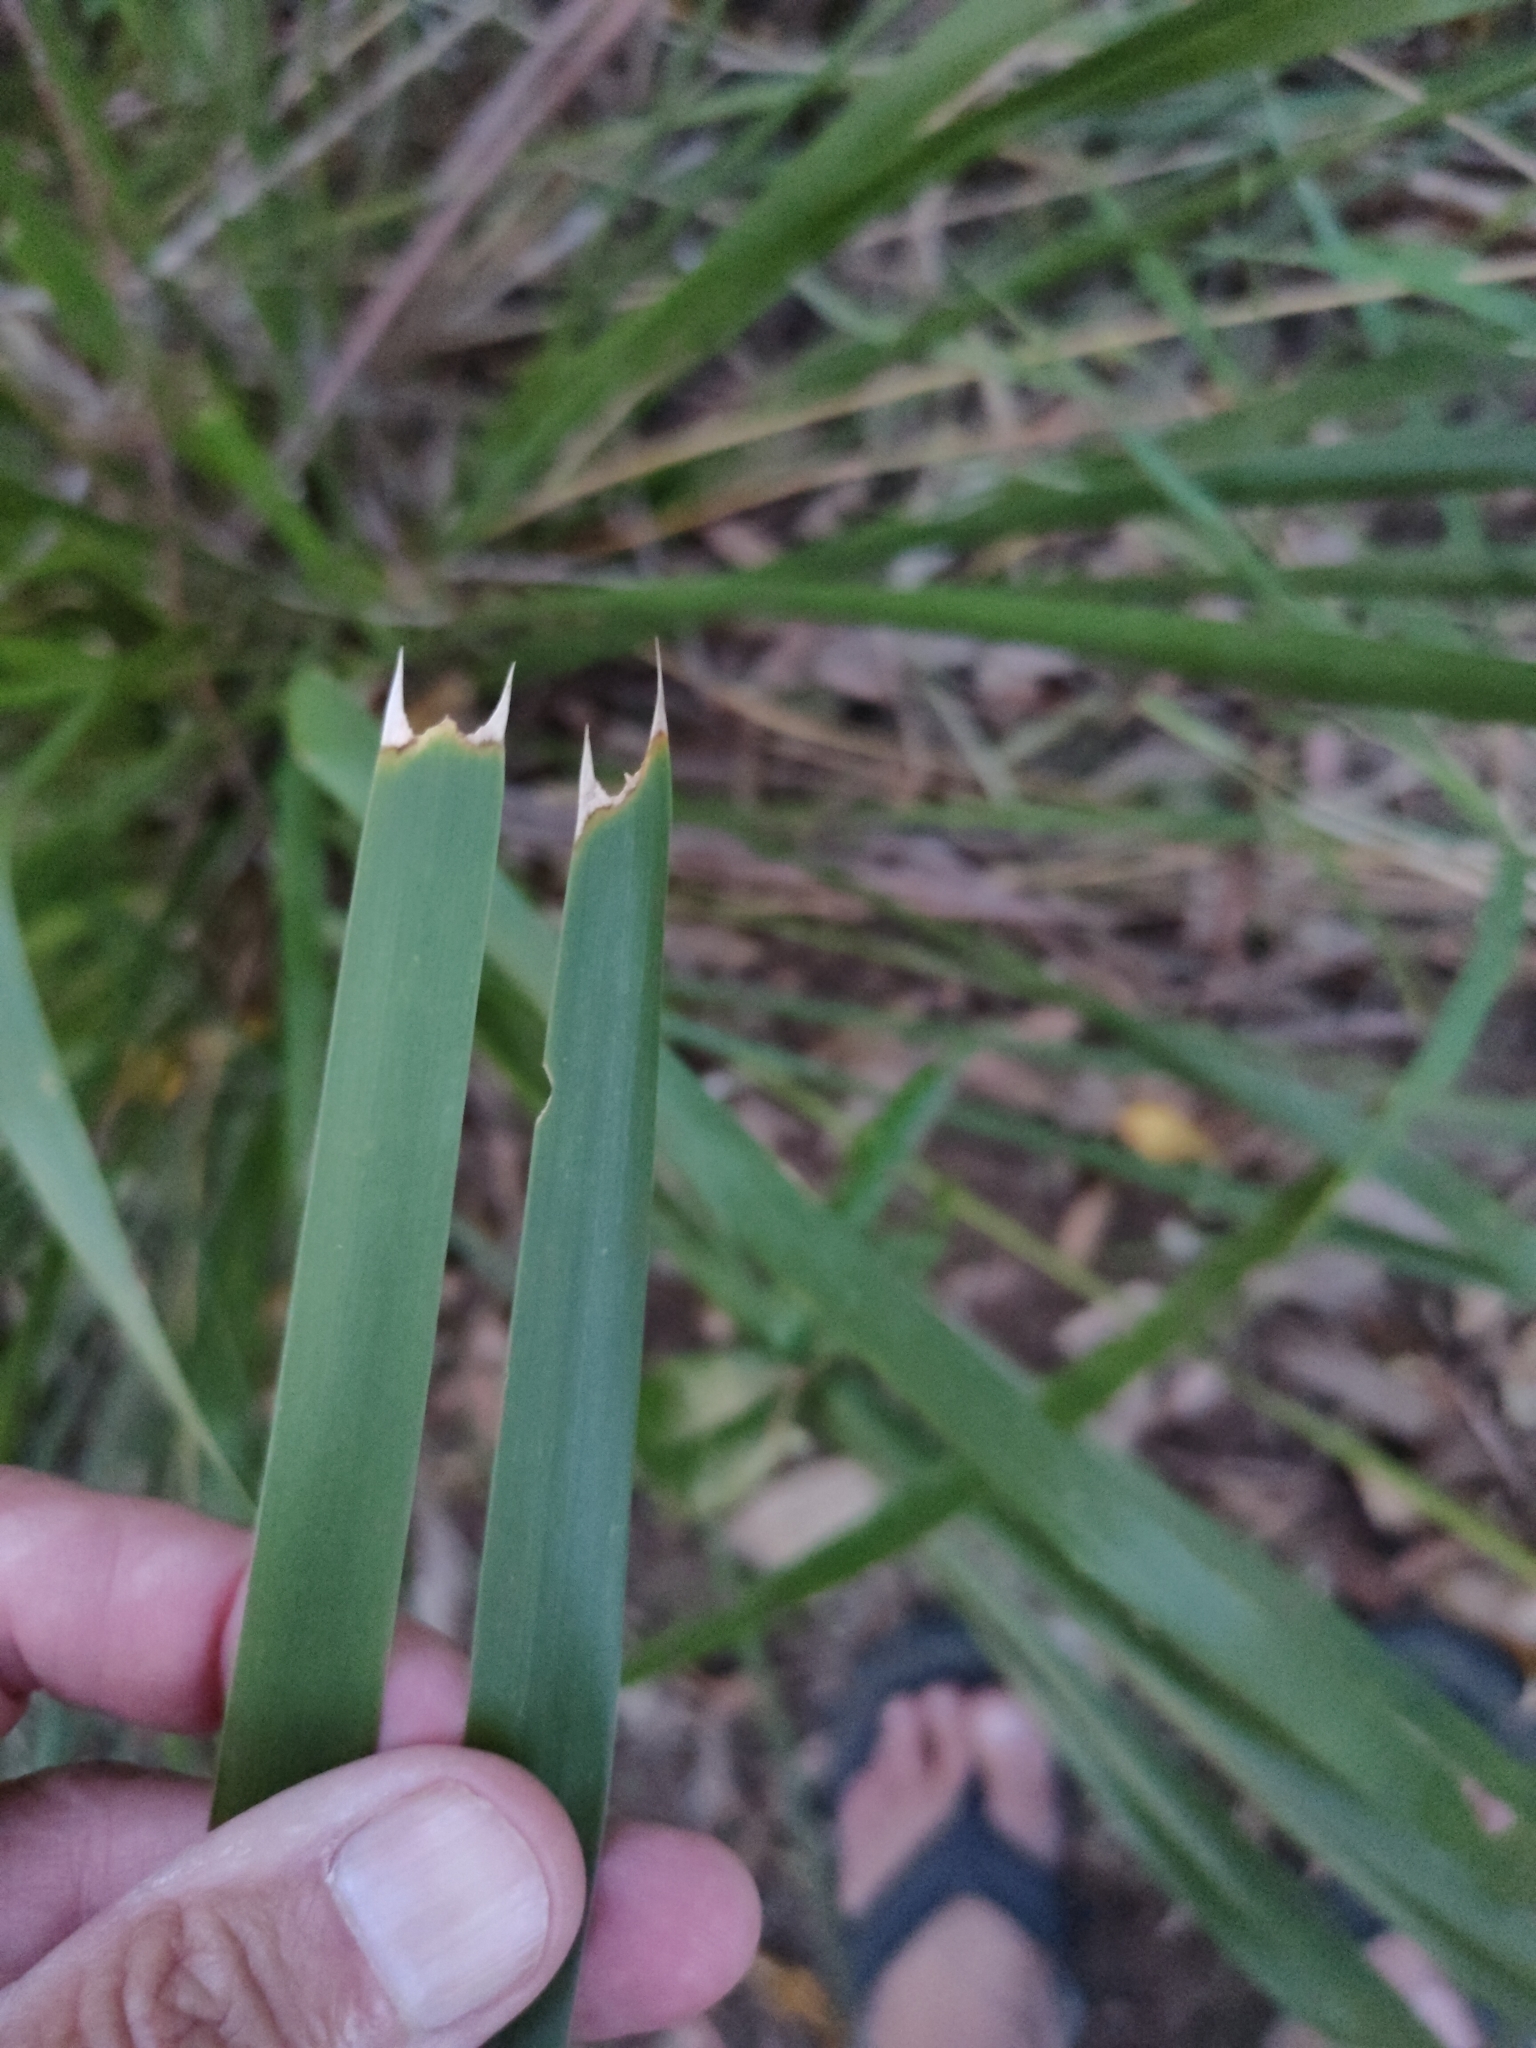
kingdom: Plantae
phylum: Tracheophyta
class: Liliopsida
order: Asparagales
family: Asparagaceae
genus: Lomandra
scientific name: Lomandra longifolia
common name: Longleaf mat-rush
